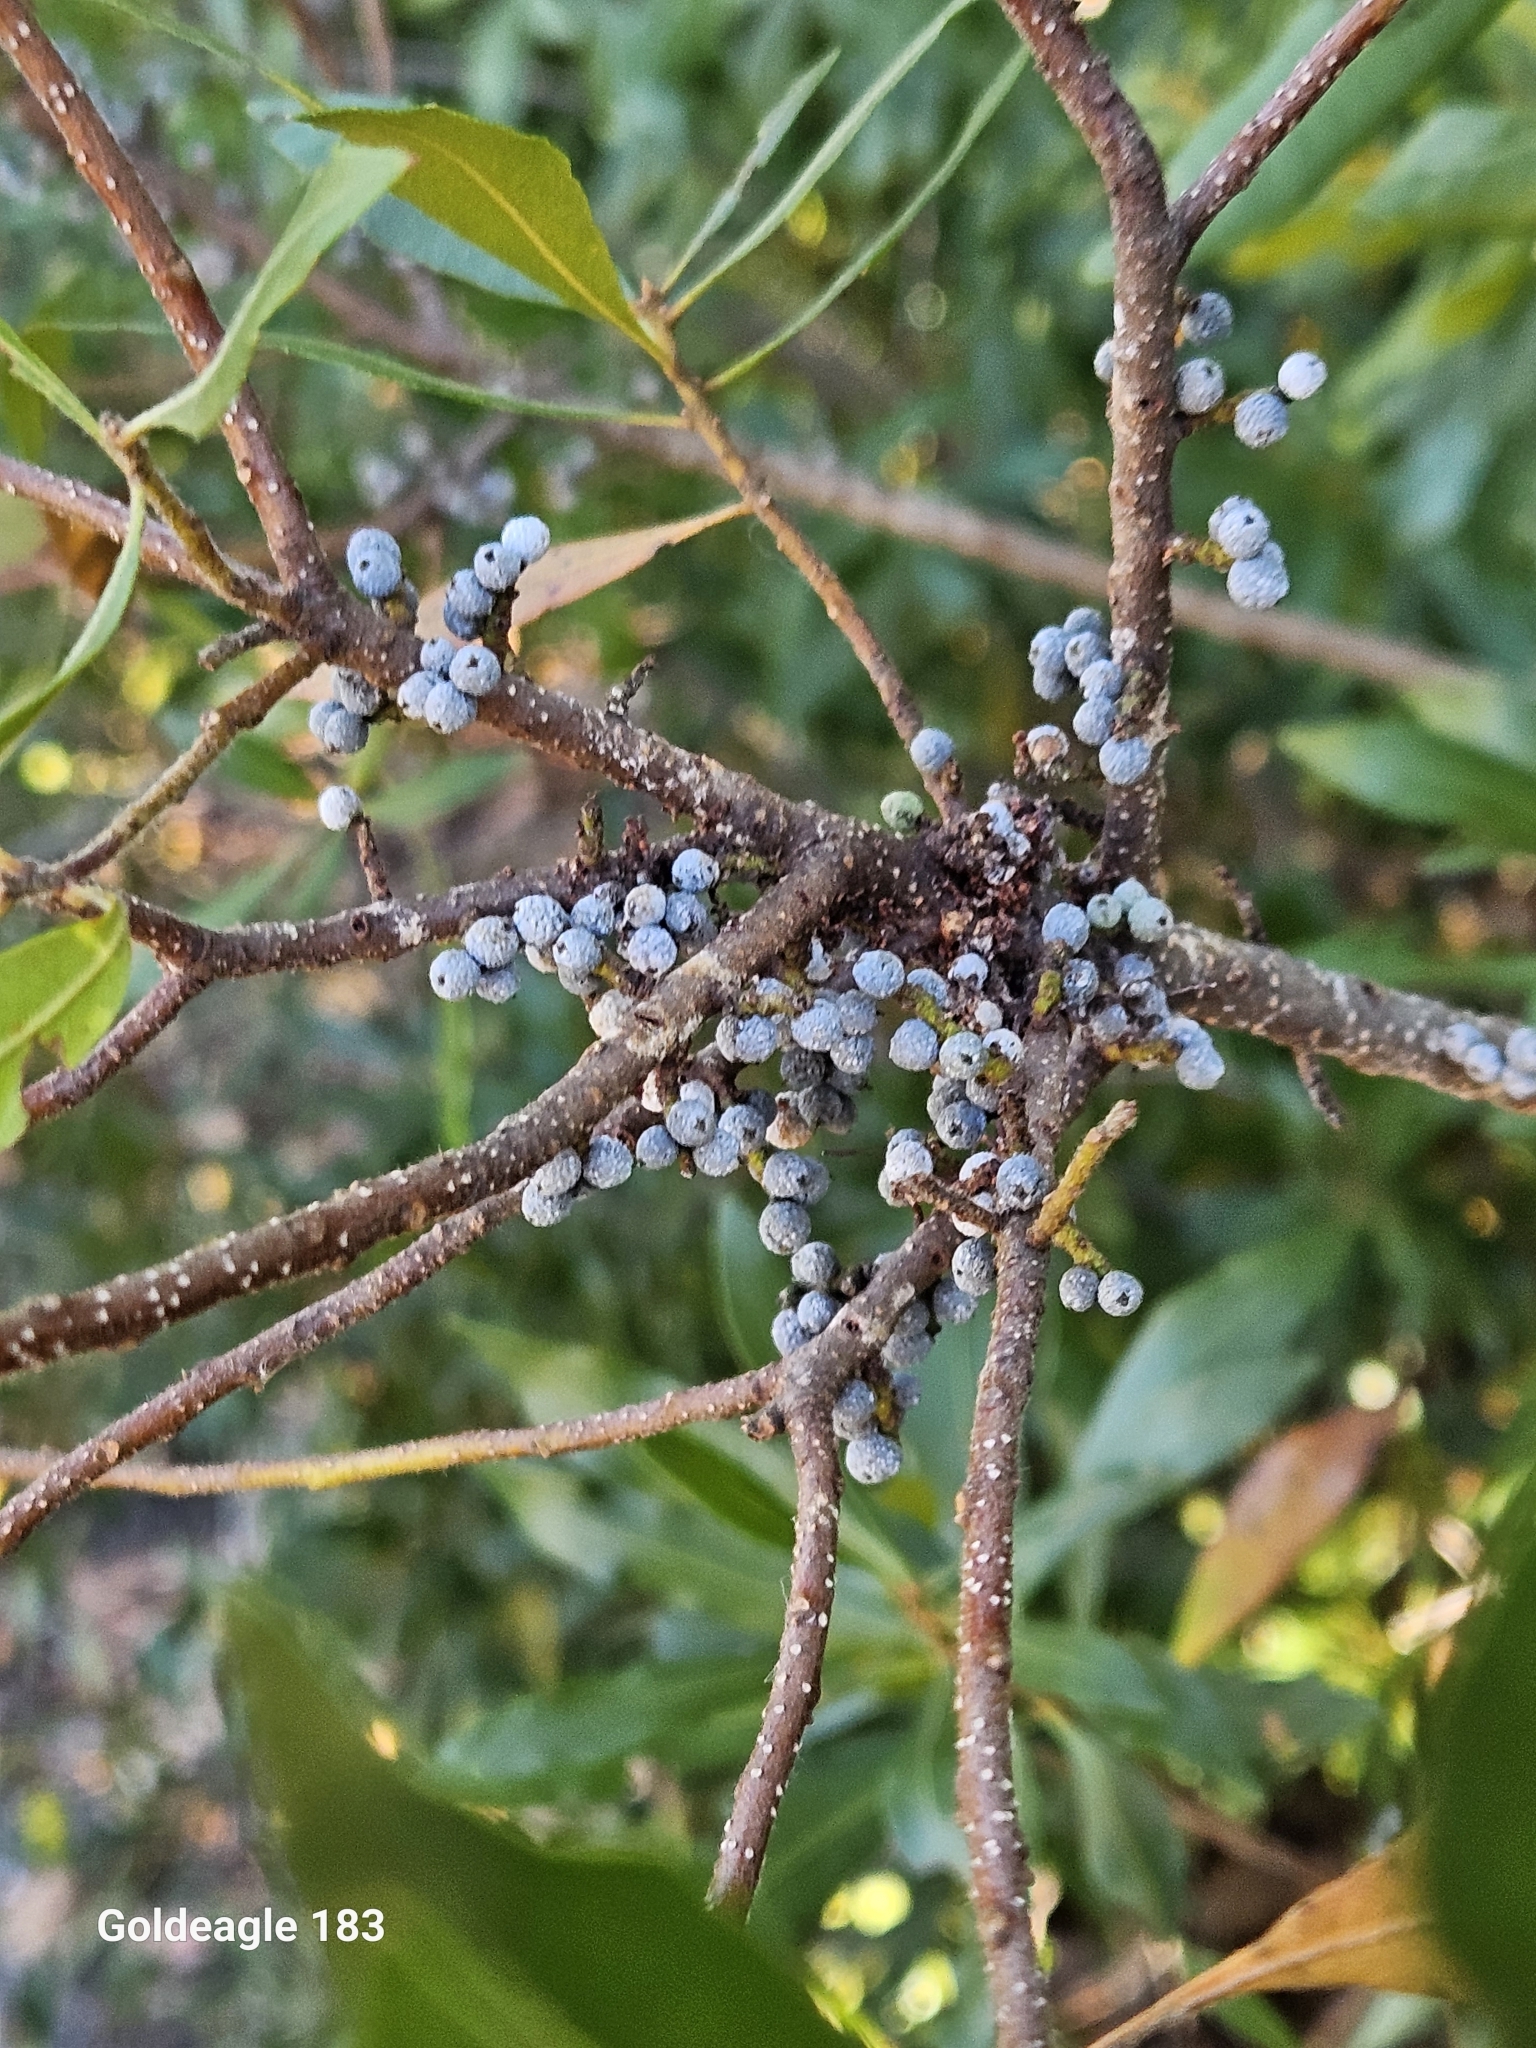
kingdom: Plantae
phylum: Tracheophyta
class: Magnoliopsida
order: Fagales
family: Myricaceae
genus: Morella
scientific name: Morella cerifera
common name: Wax myrtle
